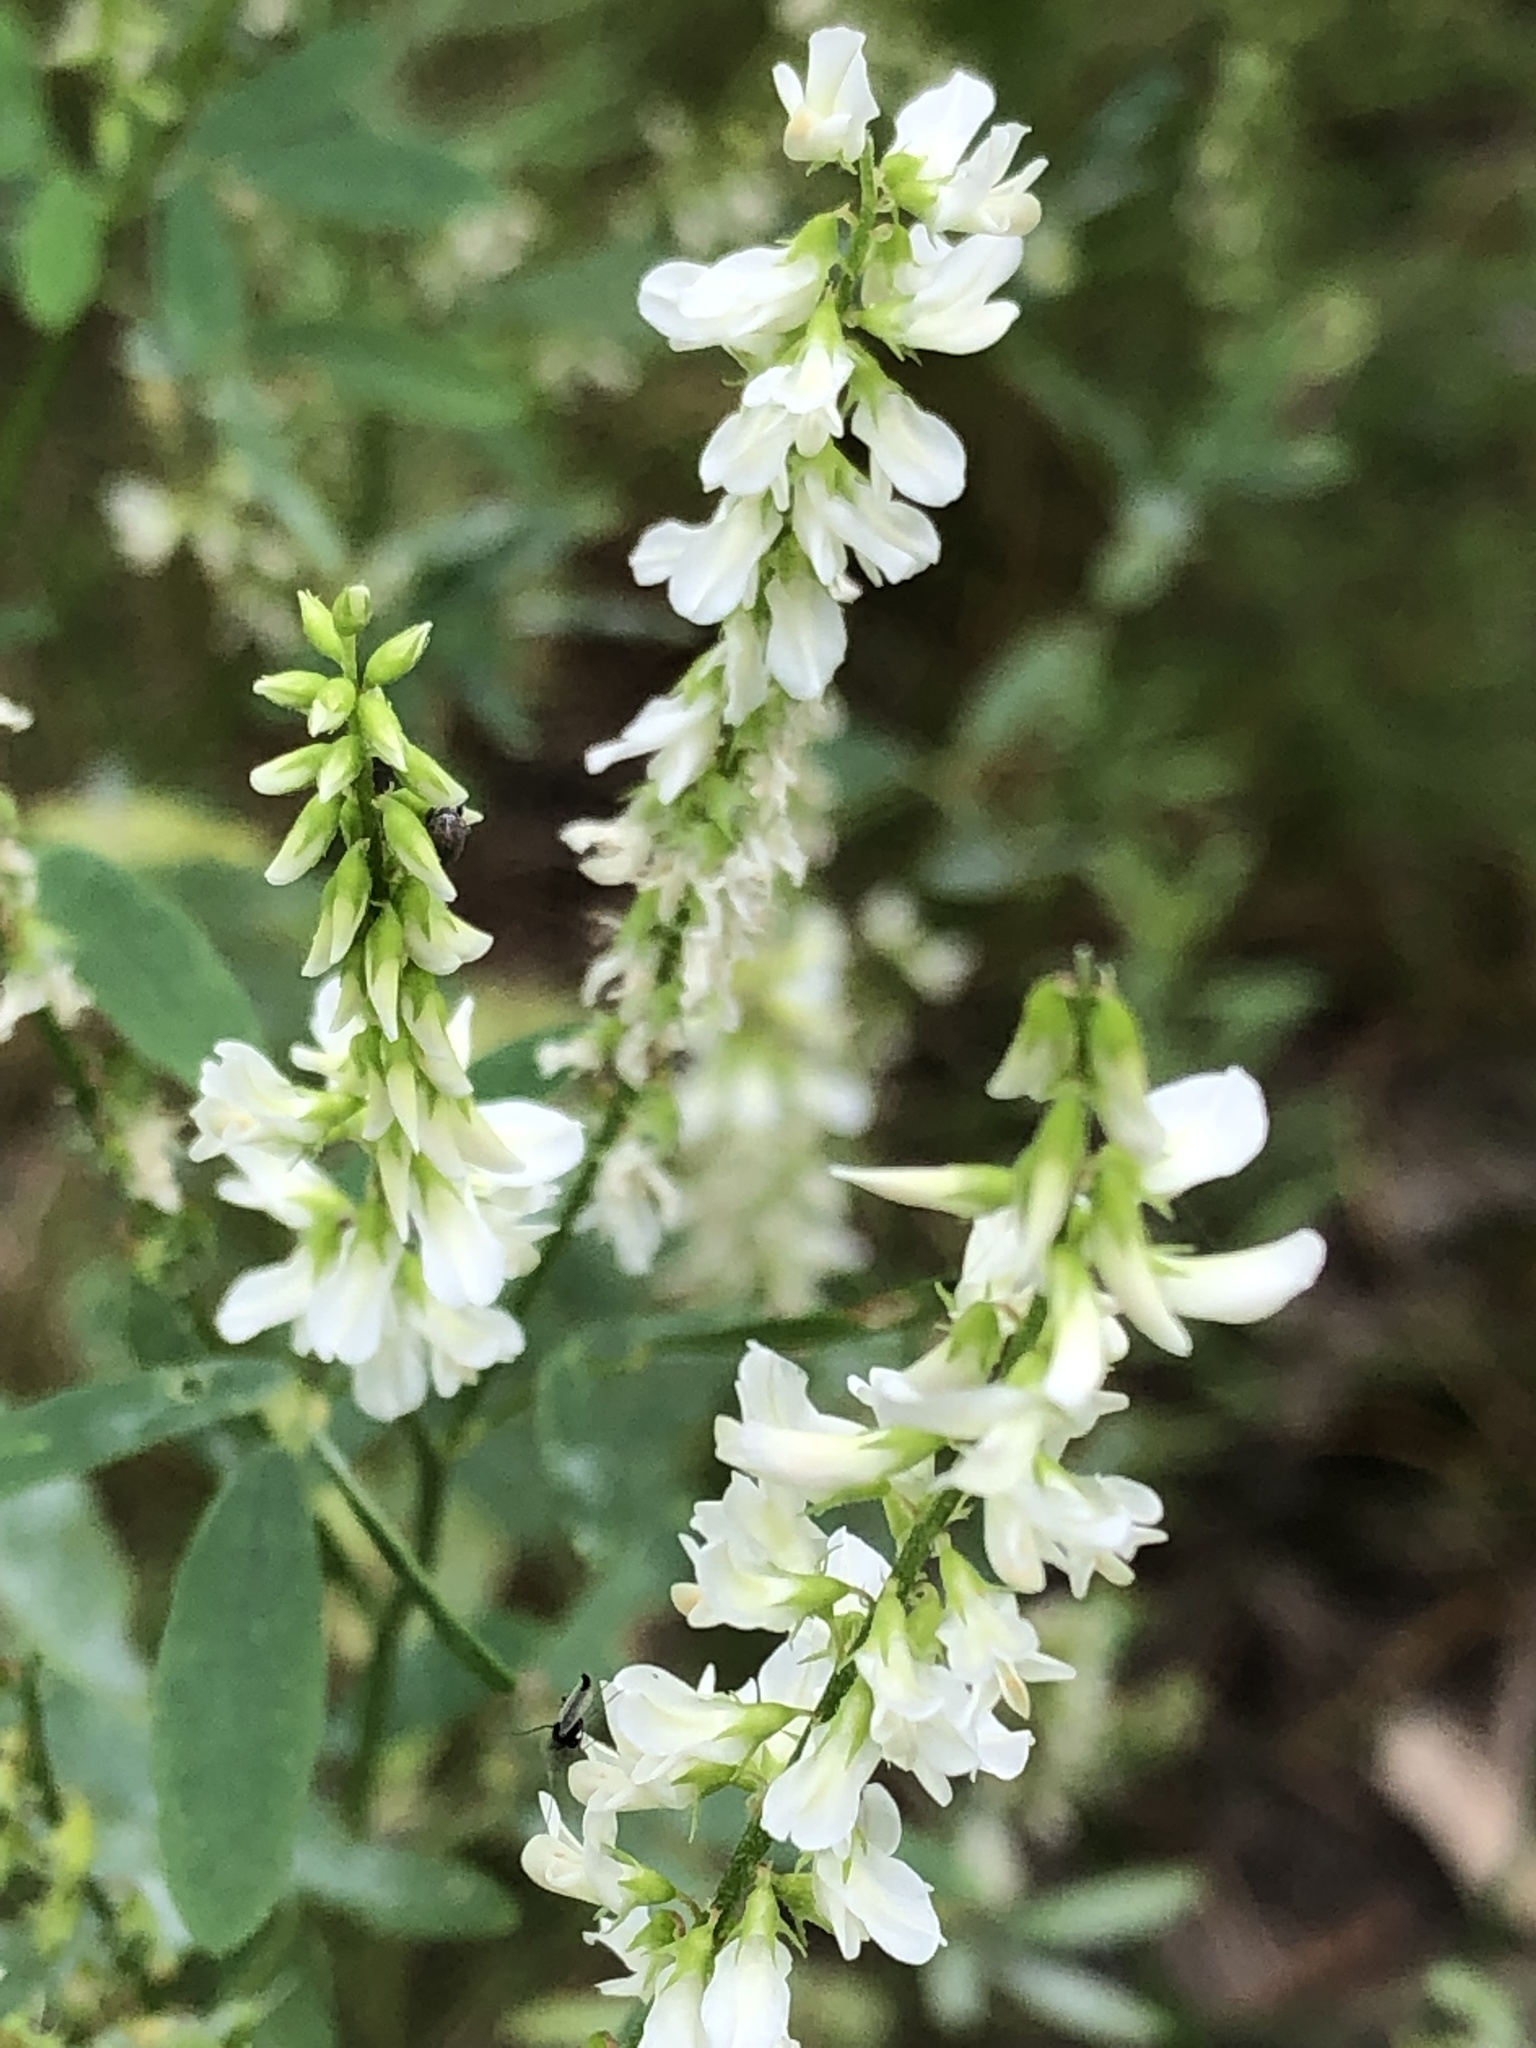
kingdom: Plantae
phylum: Tracheophyta
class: Magnoliopsida
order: Fabales
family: Fabaceae
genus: Melilotus
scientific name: Melilotus albus
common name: White melilot
